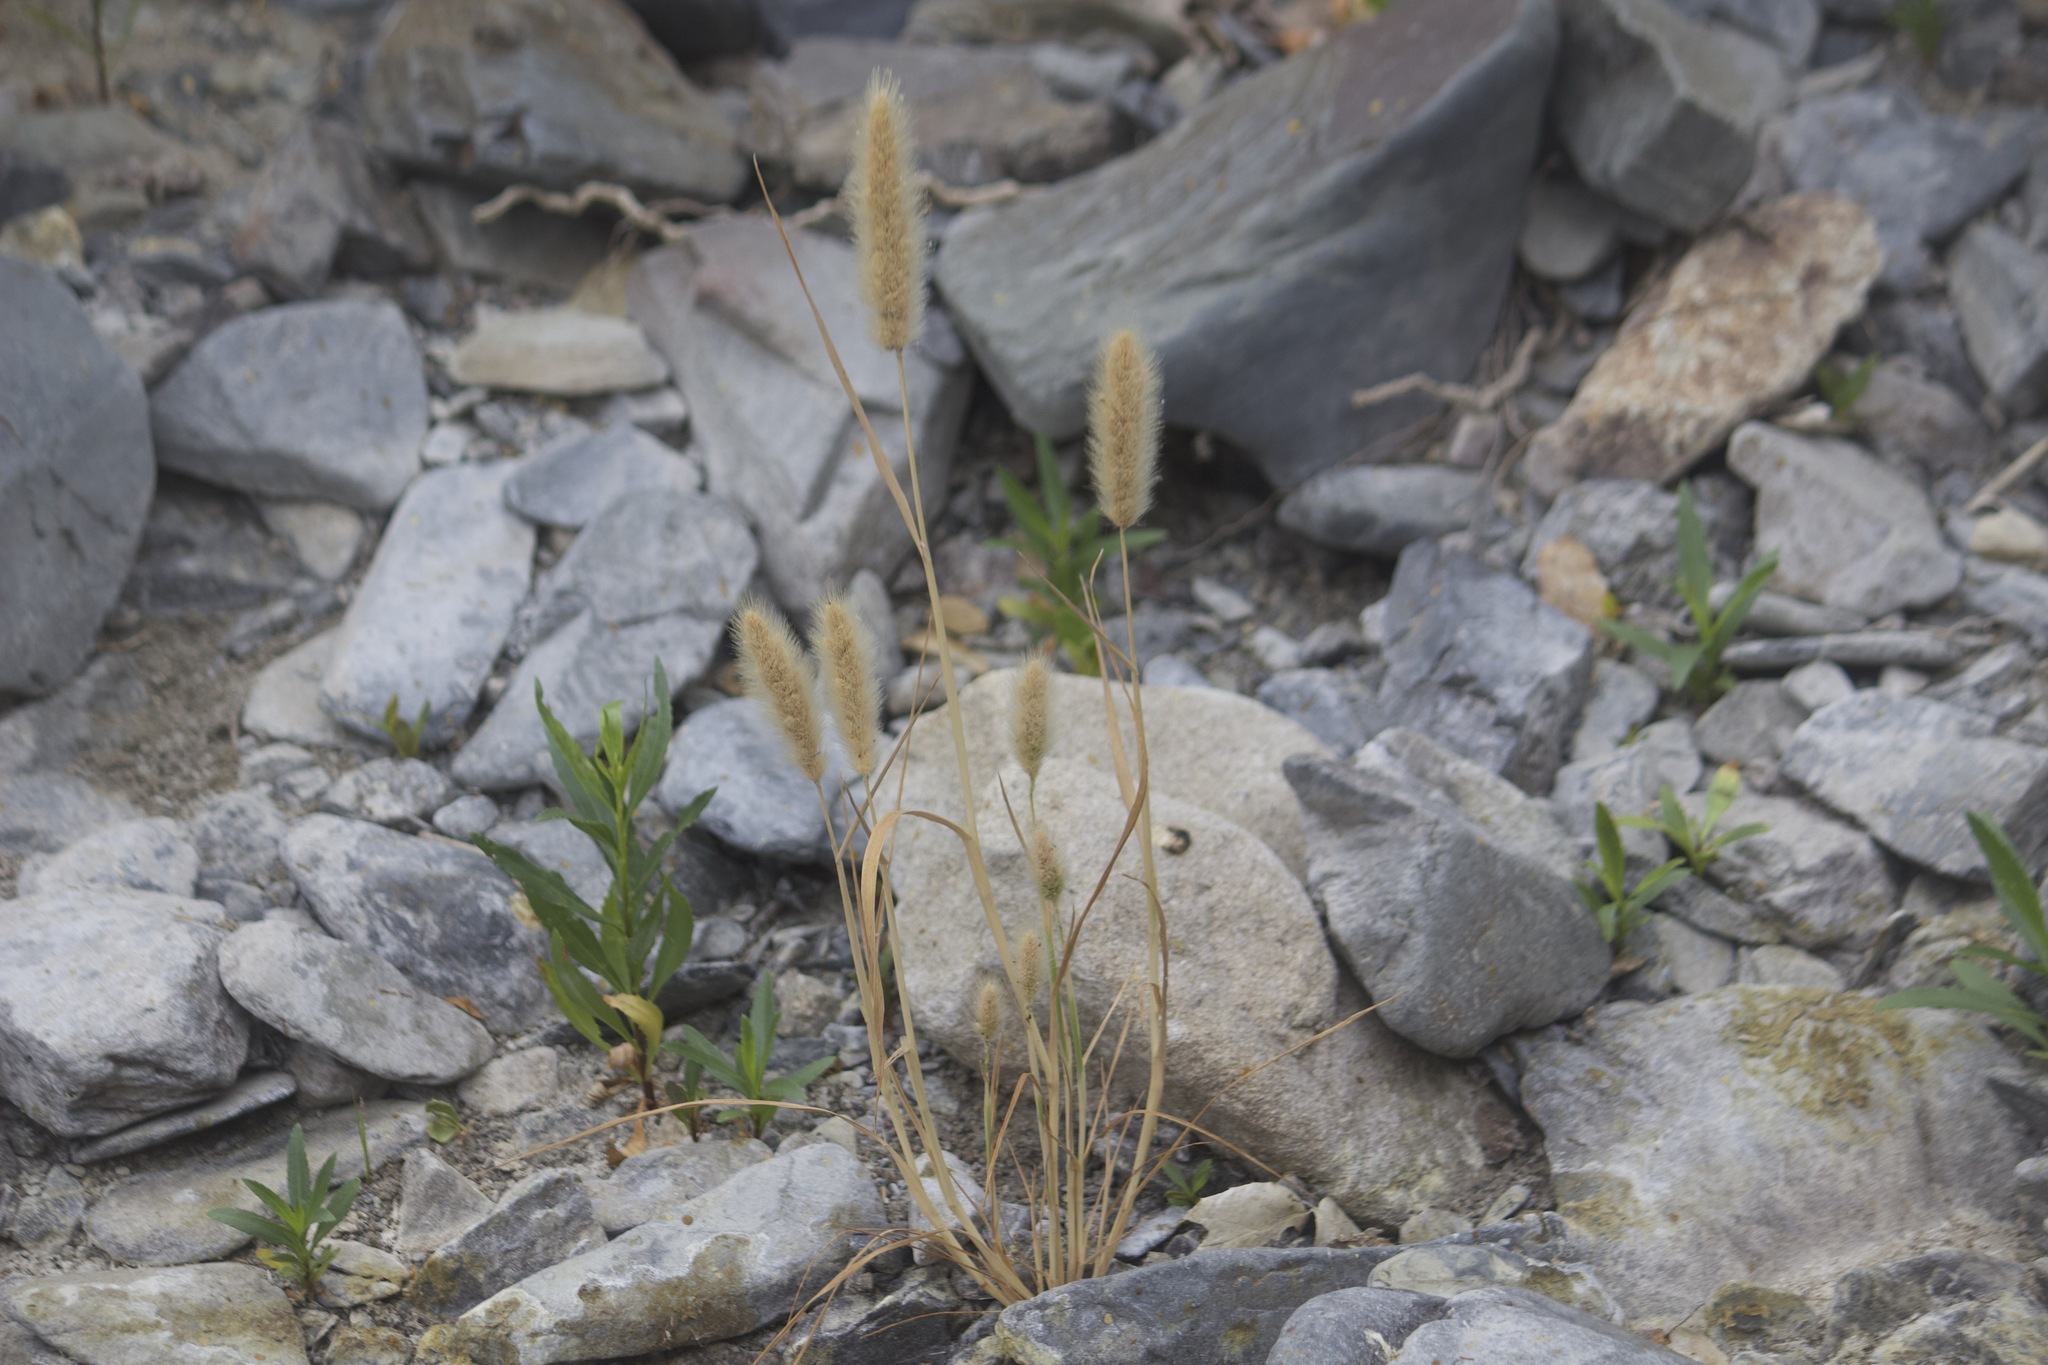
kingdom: Plantae
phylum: Tracheophyta
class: Liliopsida
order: Poales
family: Poaceae
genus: Polypogon
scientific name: Polypogon monspeliensis
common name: Annual rabbitsfoot grass
